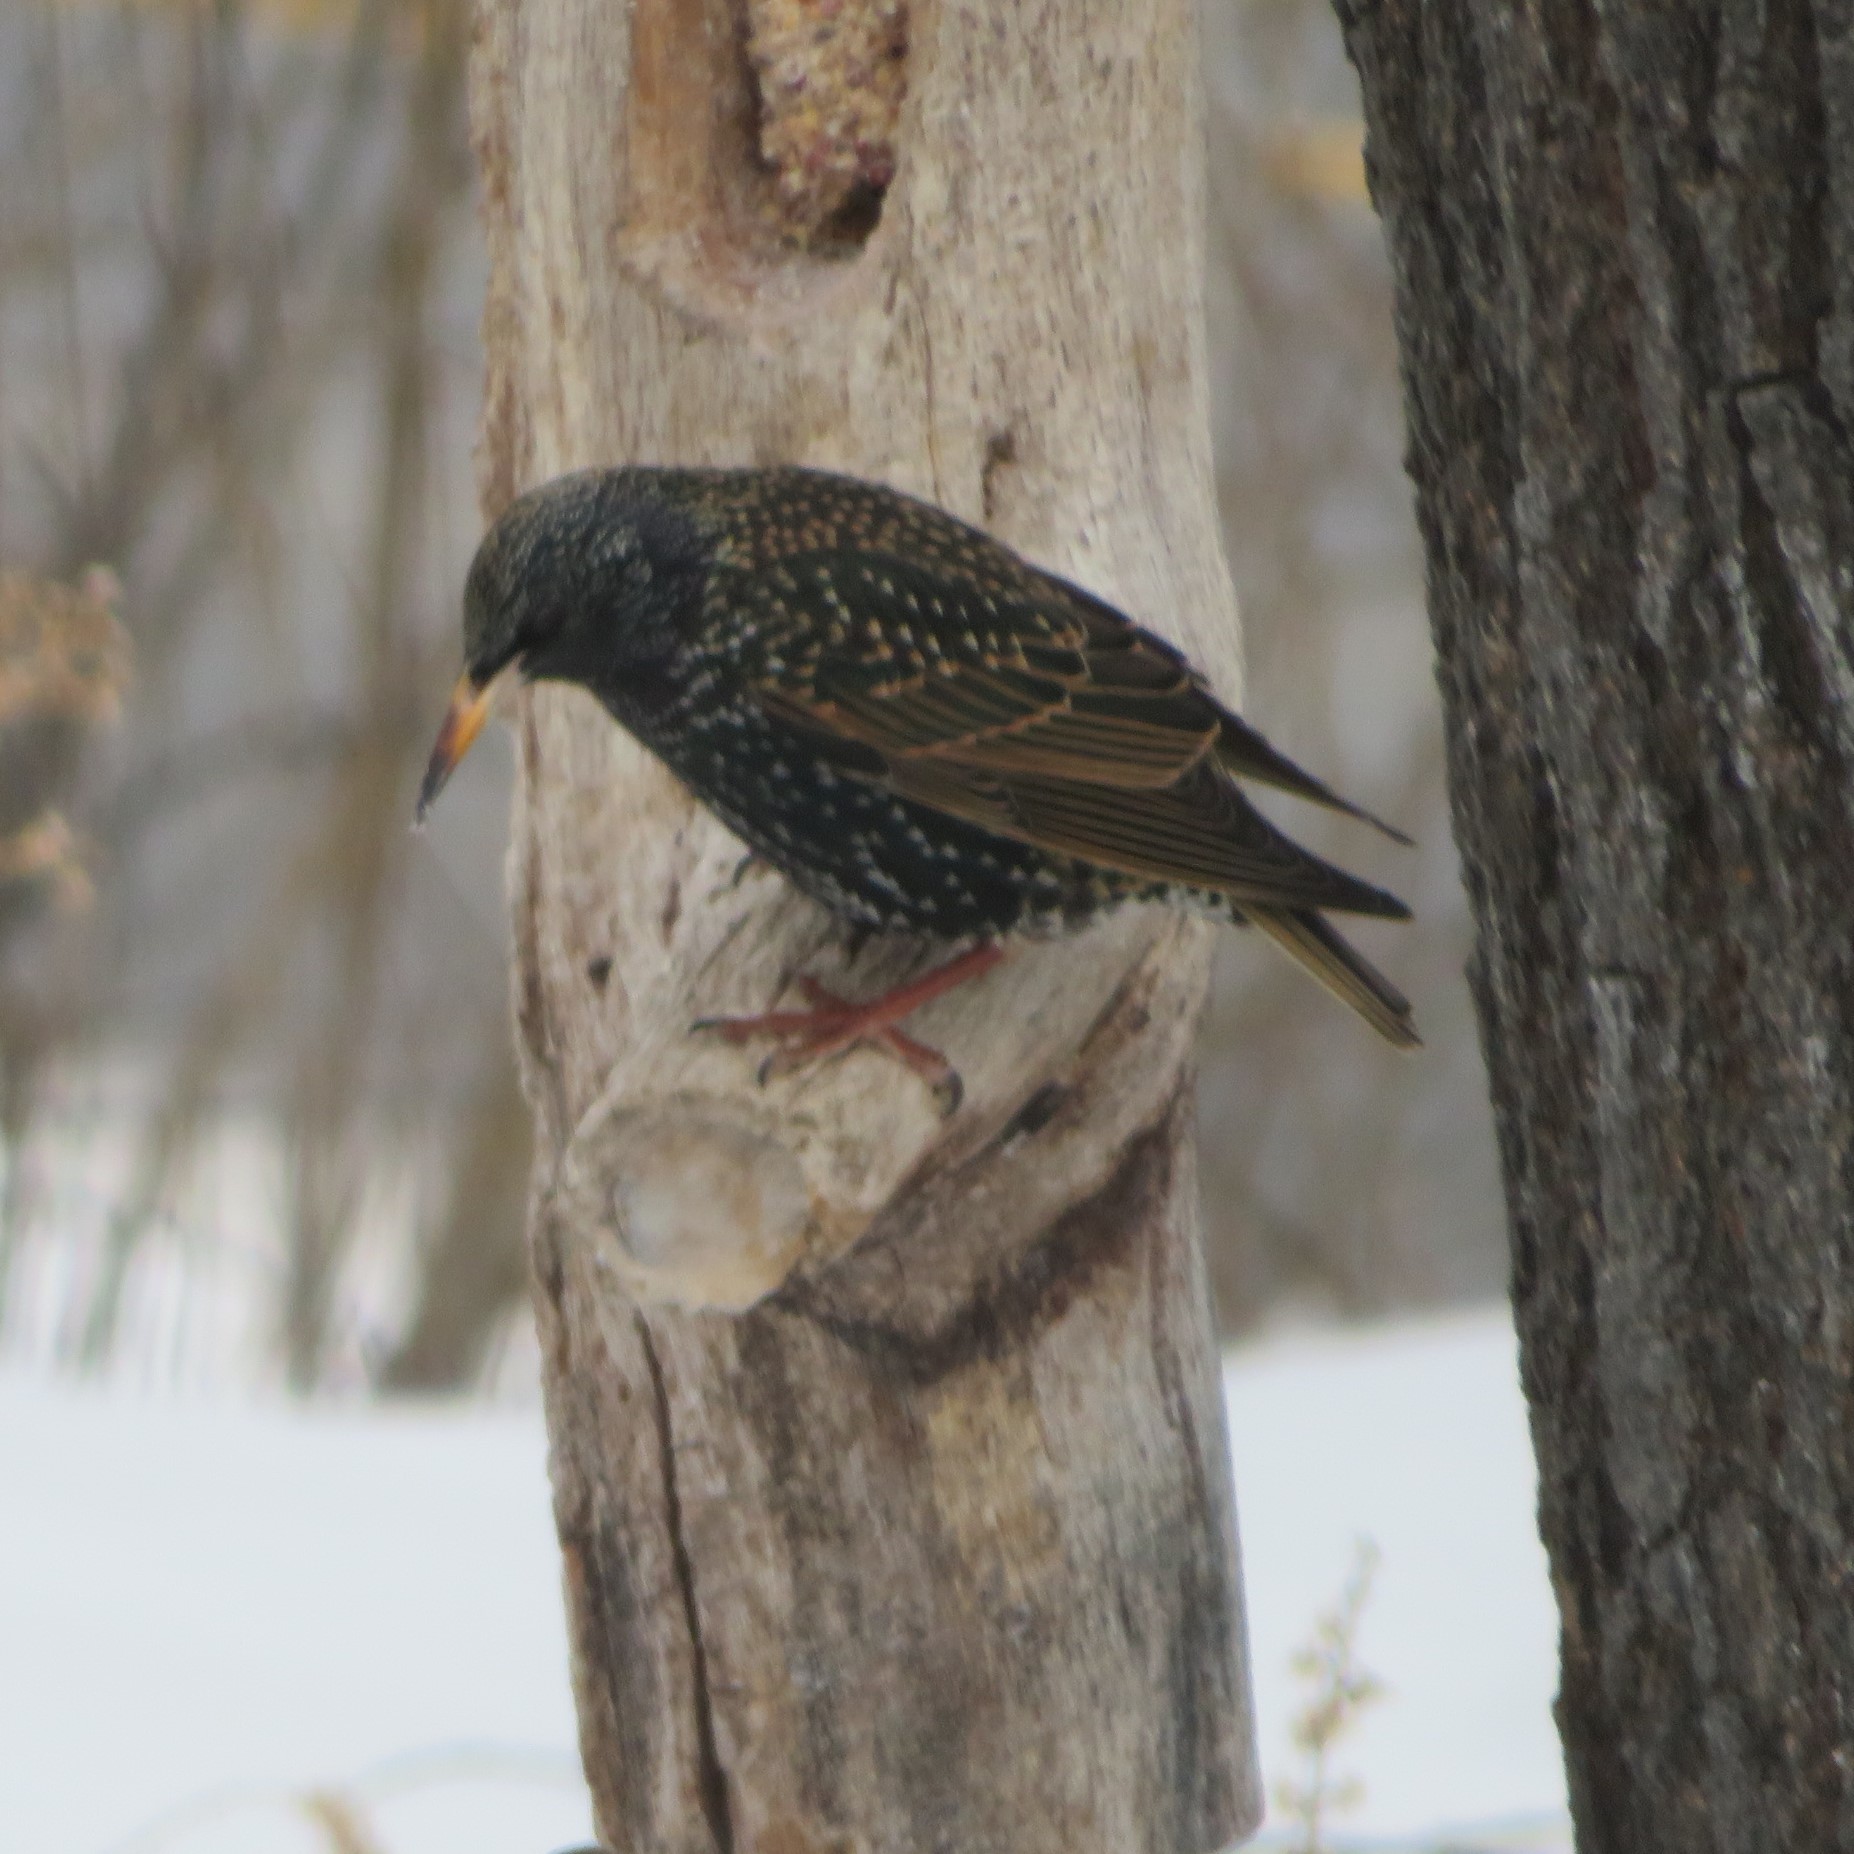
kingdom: Animalia
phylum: Chordata
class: Aves
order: Passeriformes
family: Sturnidae
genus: Sturnus
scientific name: Sturnus vulgaris
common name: Common starling
